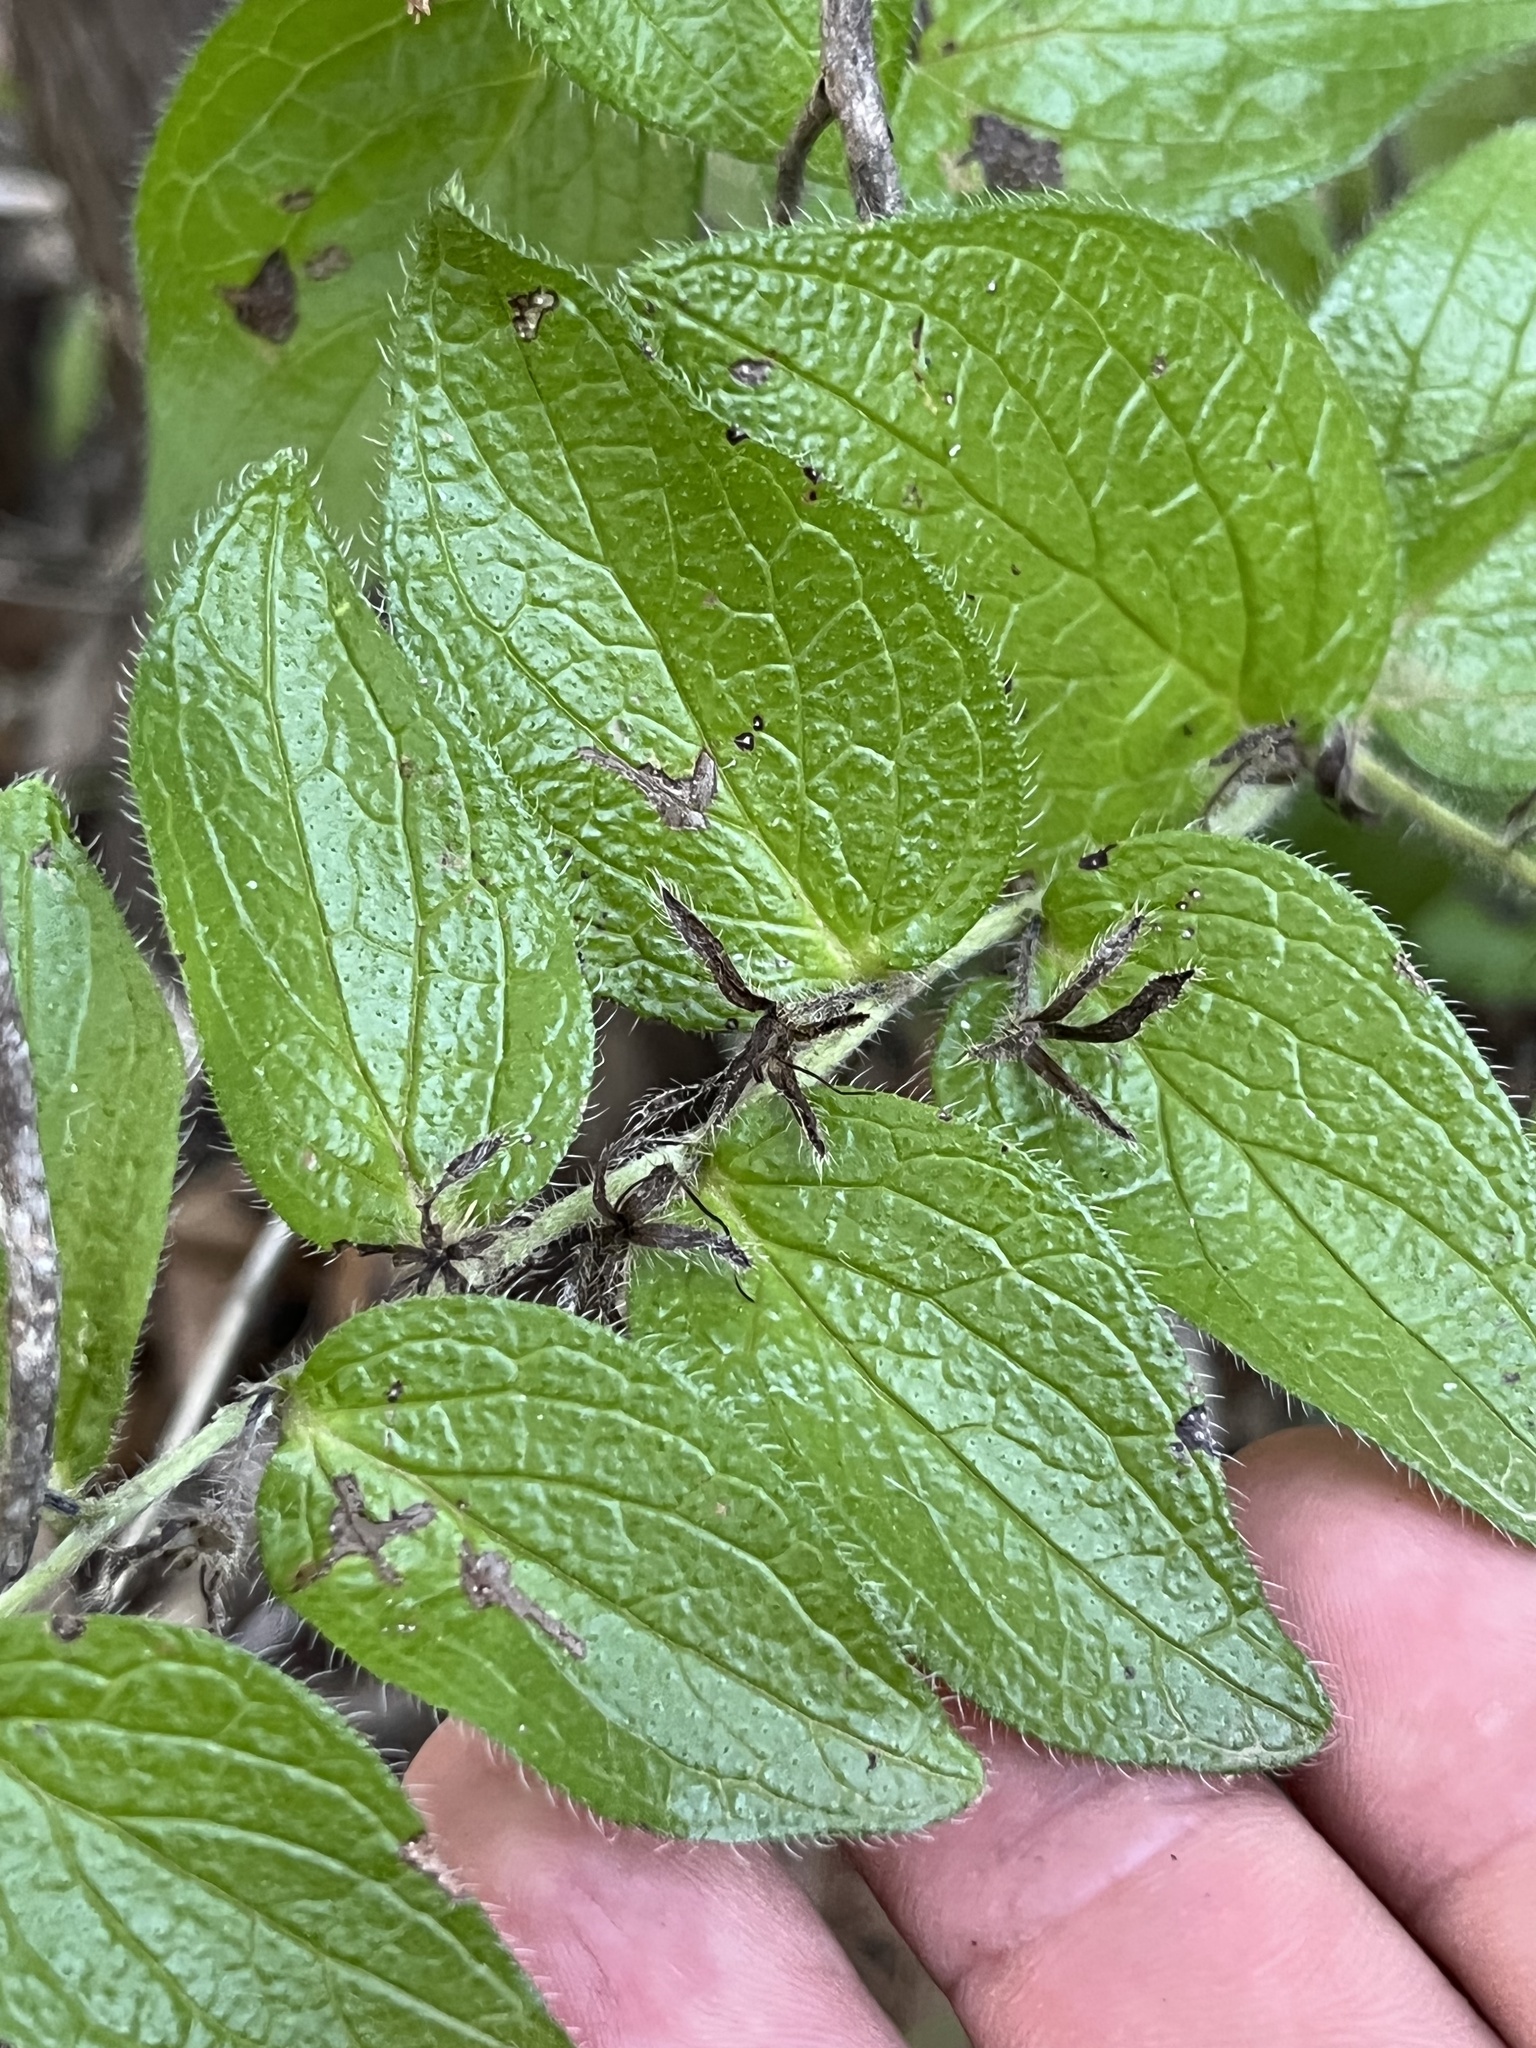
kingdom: Plantae
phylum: Tracheophyta
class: Magnoliopsida
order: Boraginales
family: Boraginaceae
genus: Lithospermum
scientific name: Lithospermum helleri
